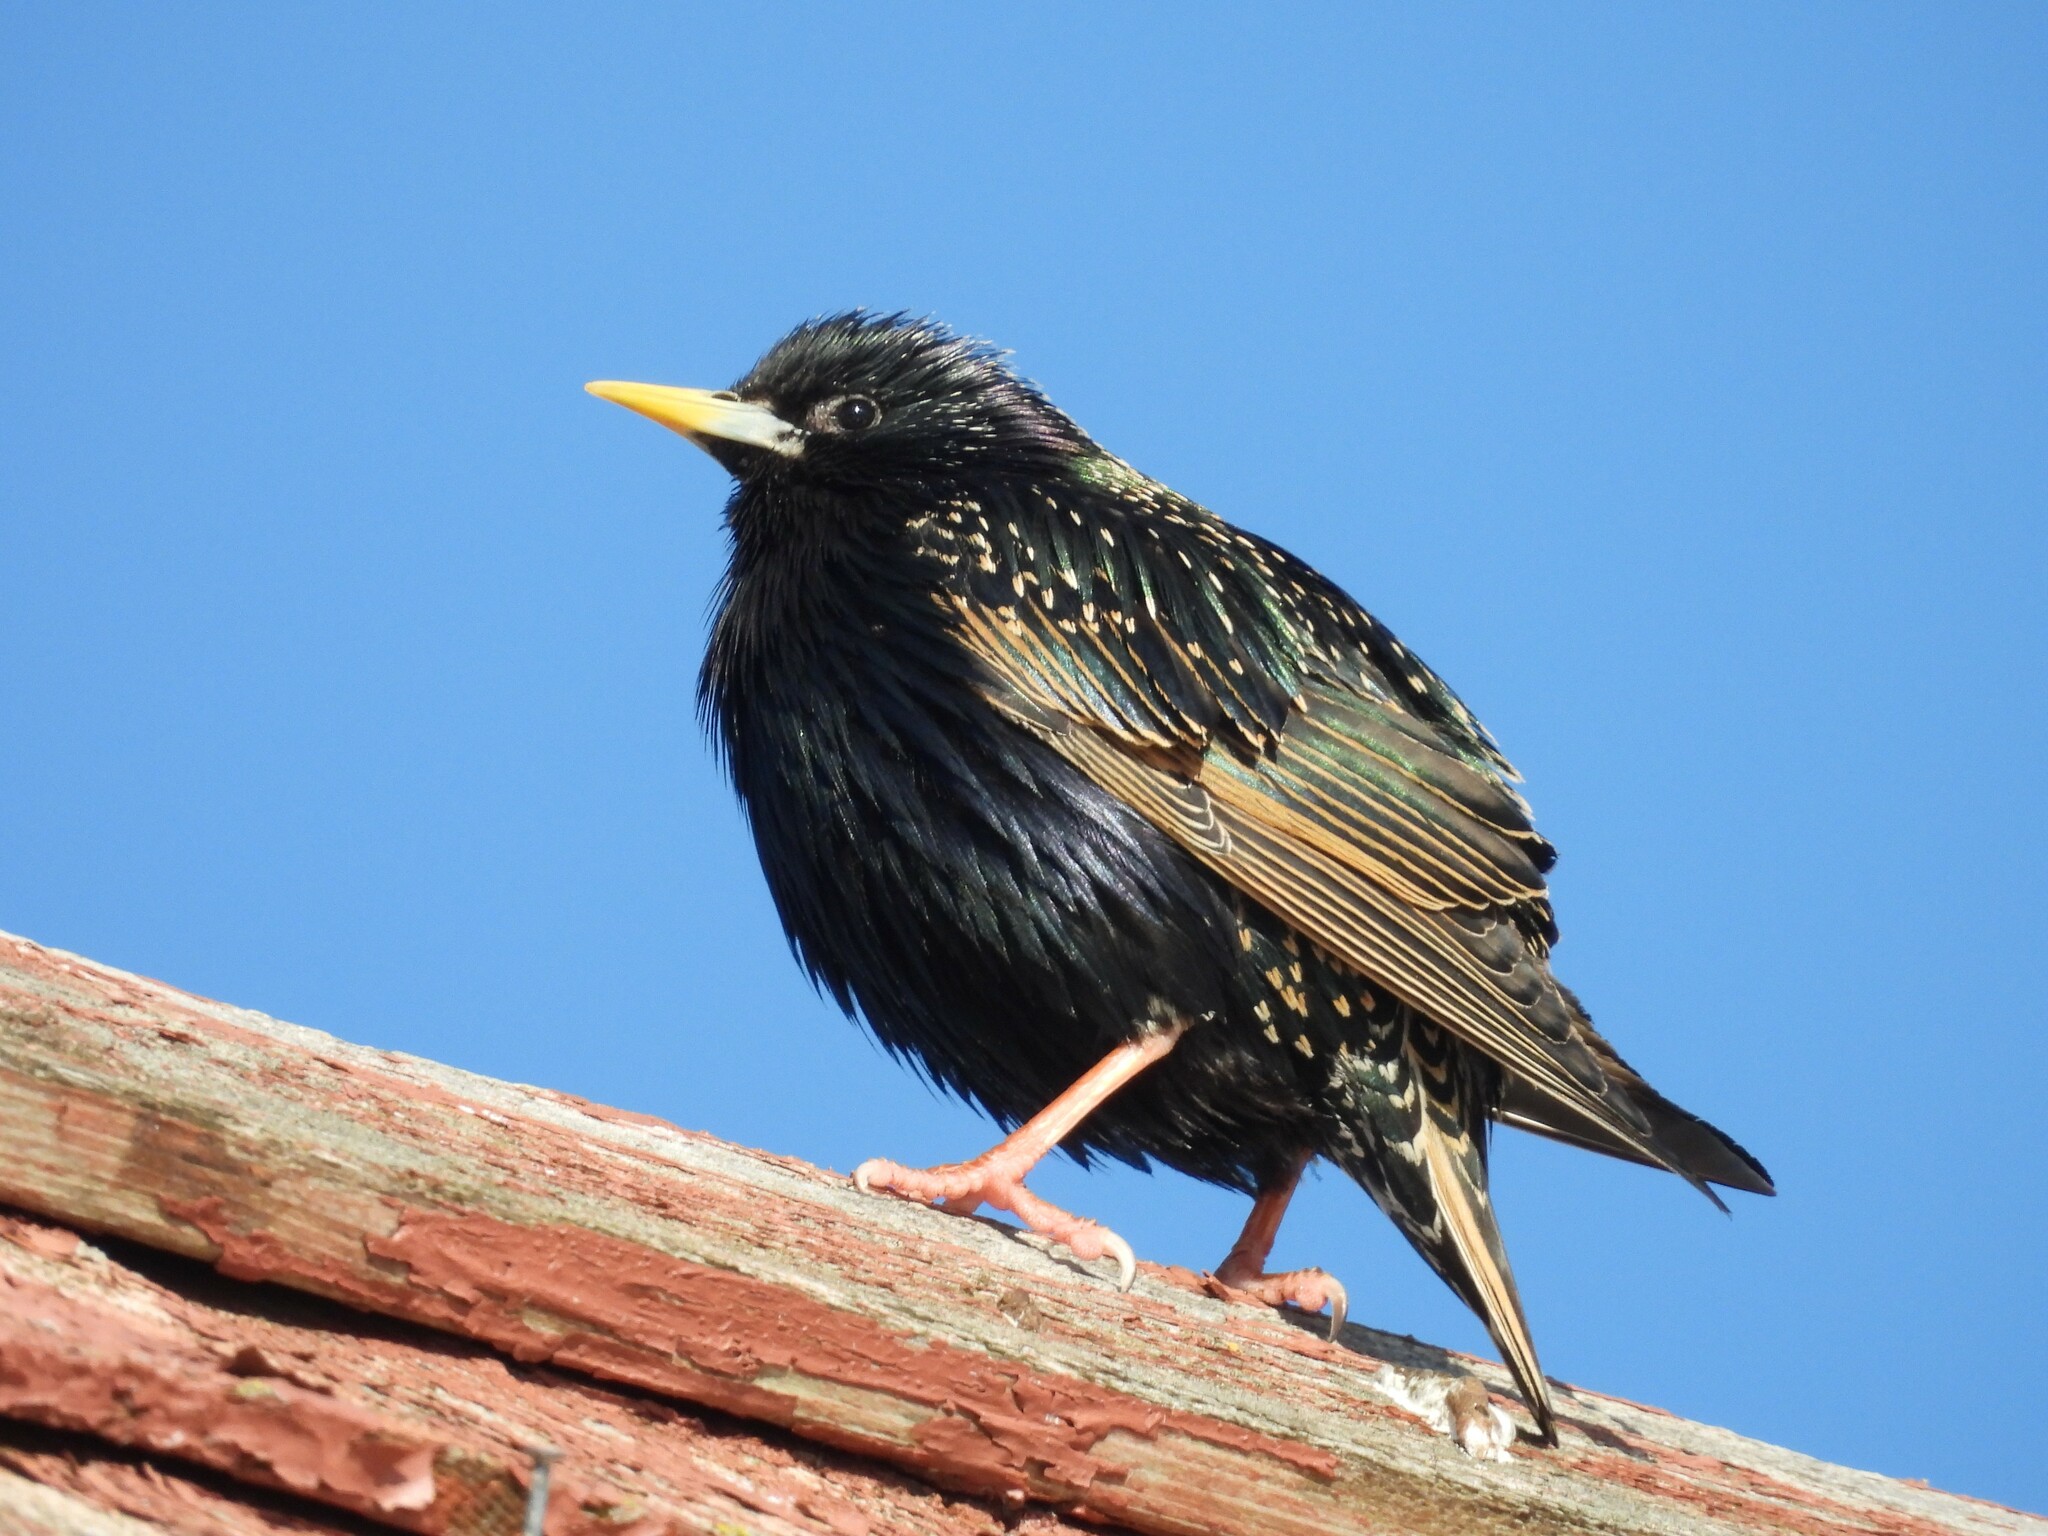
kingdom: Animalia
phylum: Chordata
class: Aves
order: Passeriformes
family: Sturnidae
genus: Sturnus
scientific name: Sturnus vulgaris
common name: Common starling
